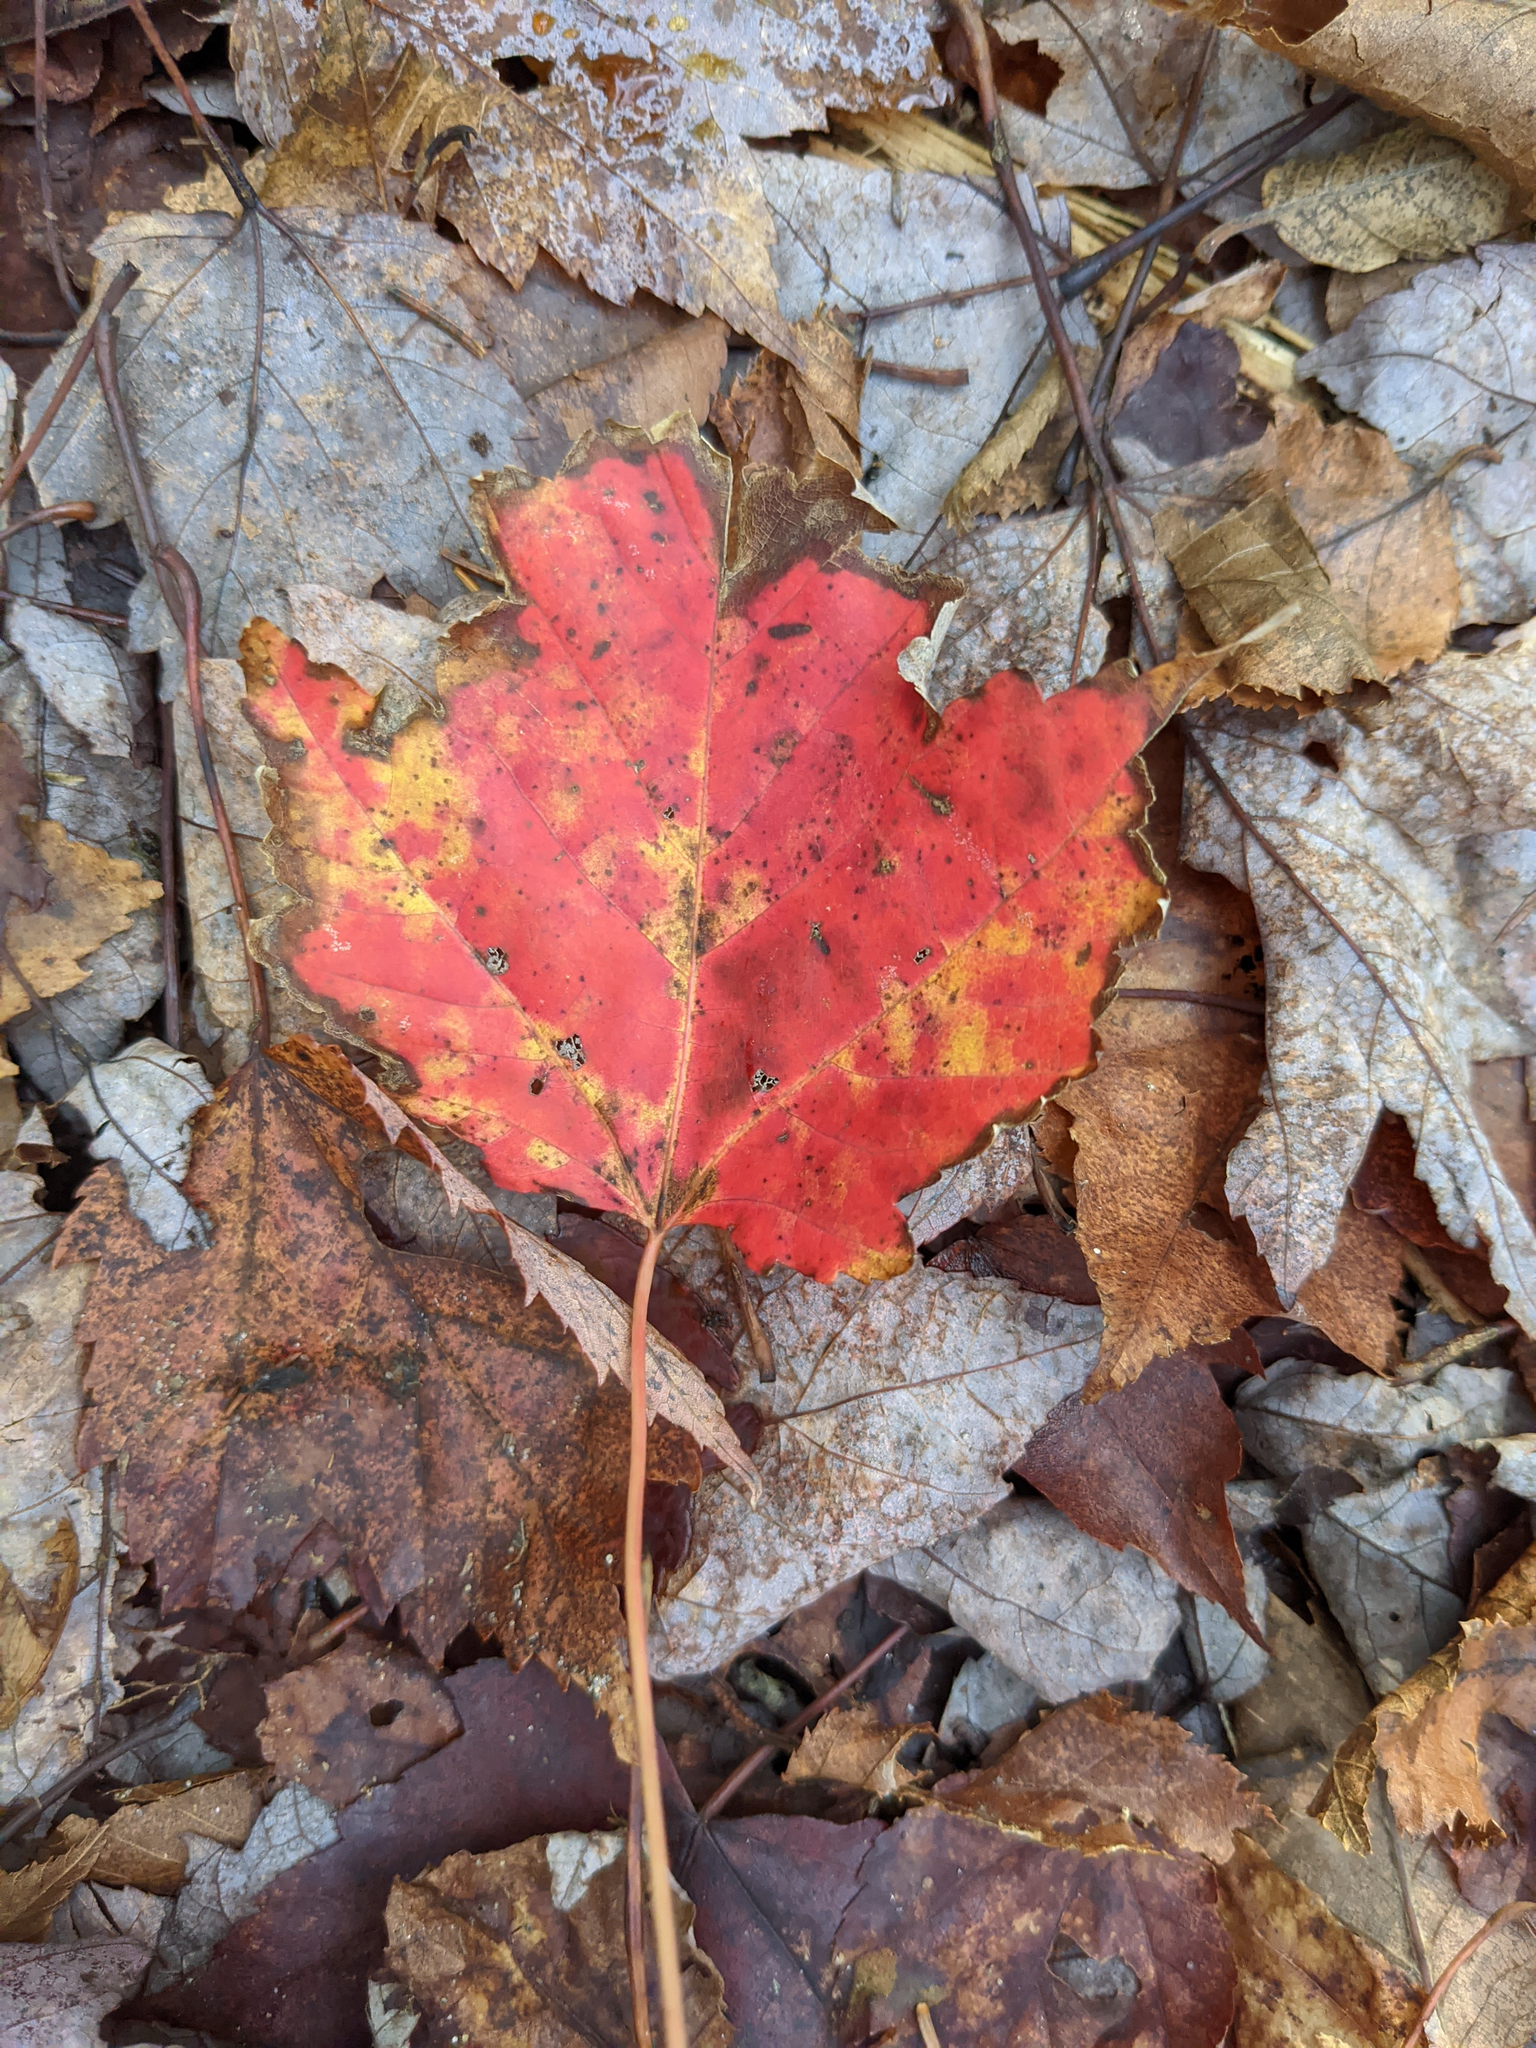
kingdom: Plantae
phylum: Tracheophyta
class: Magnoliopsida
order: Sapindales
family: Sapindaceae
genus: Acer
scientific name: Acer rubrum
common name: Red maple
